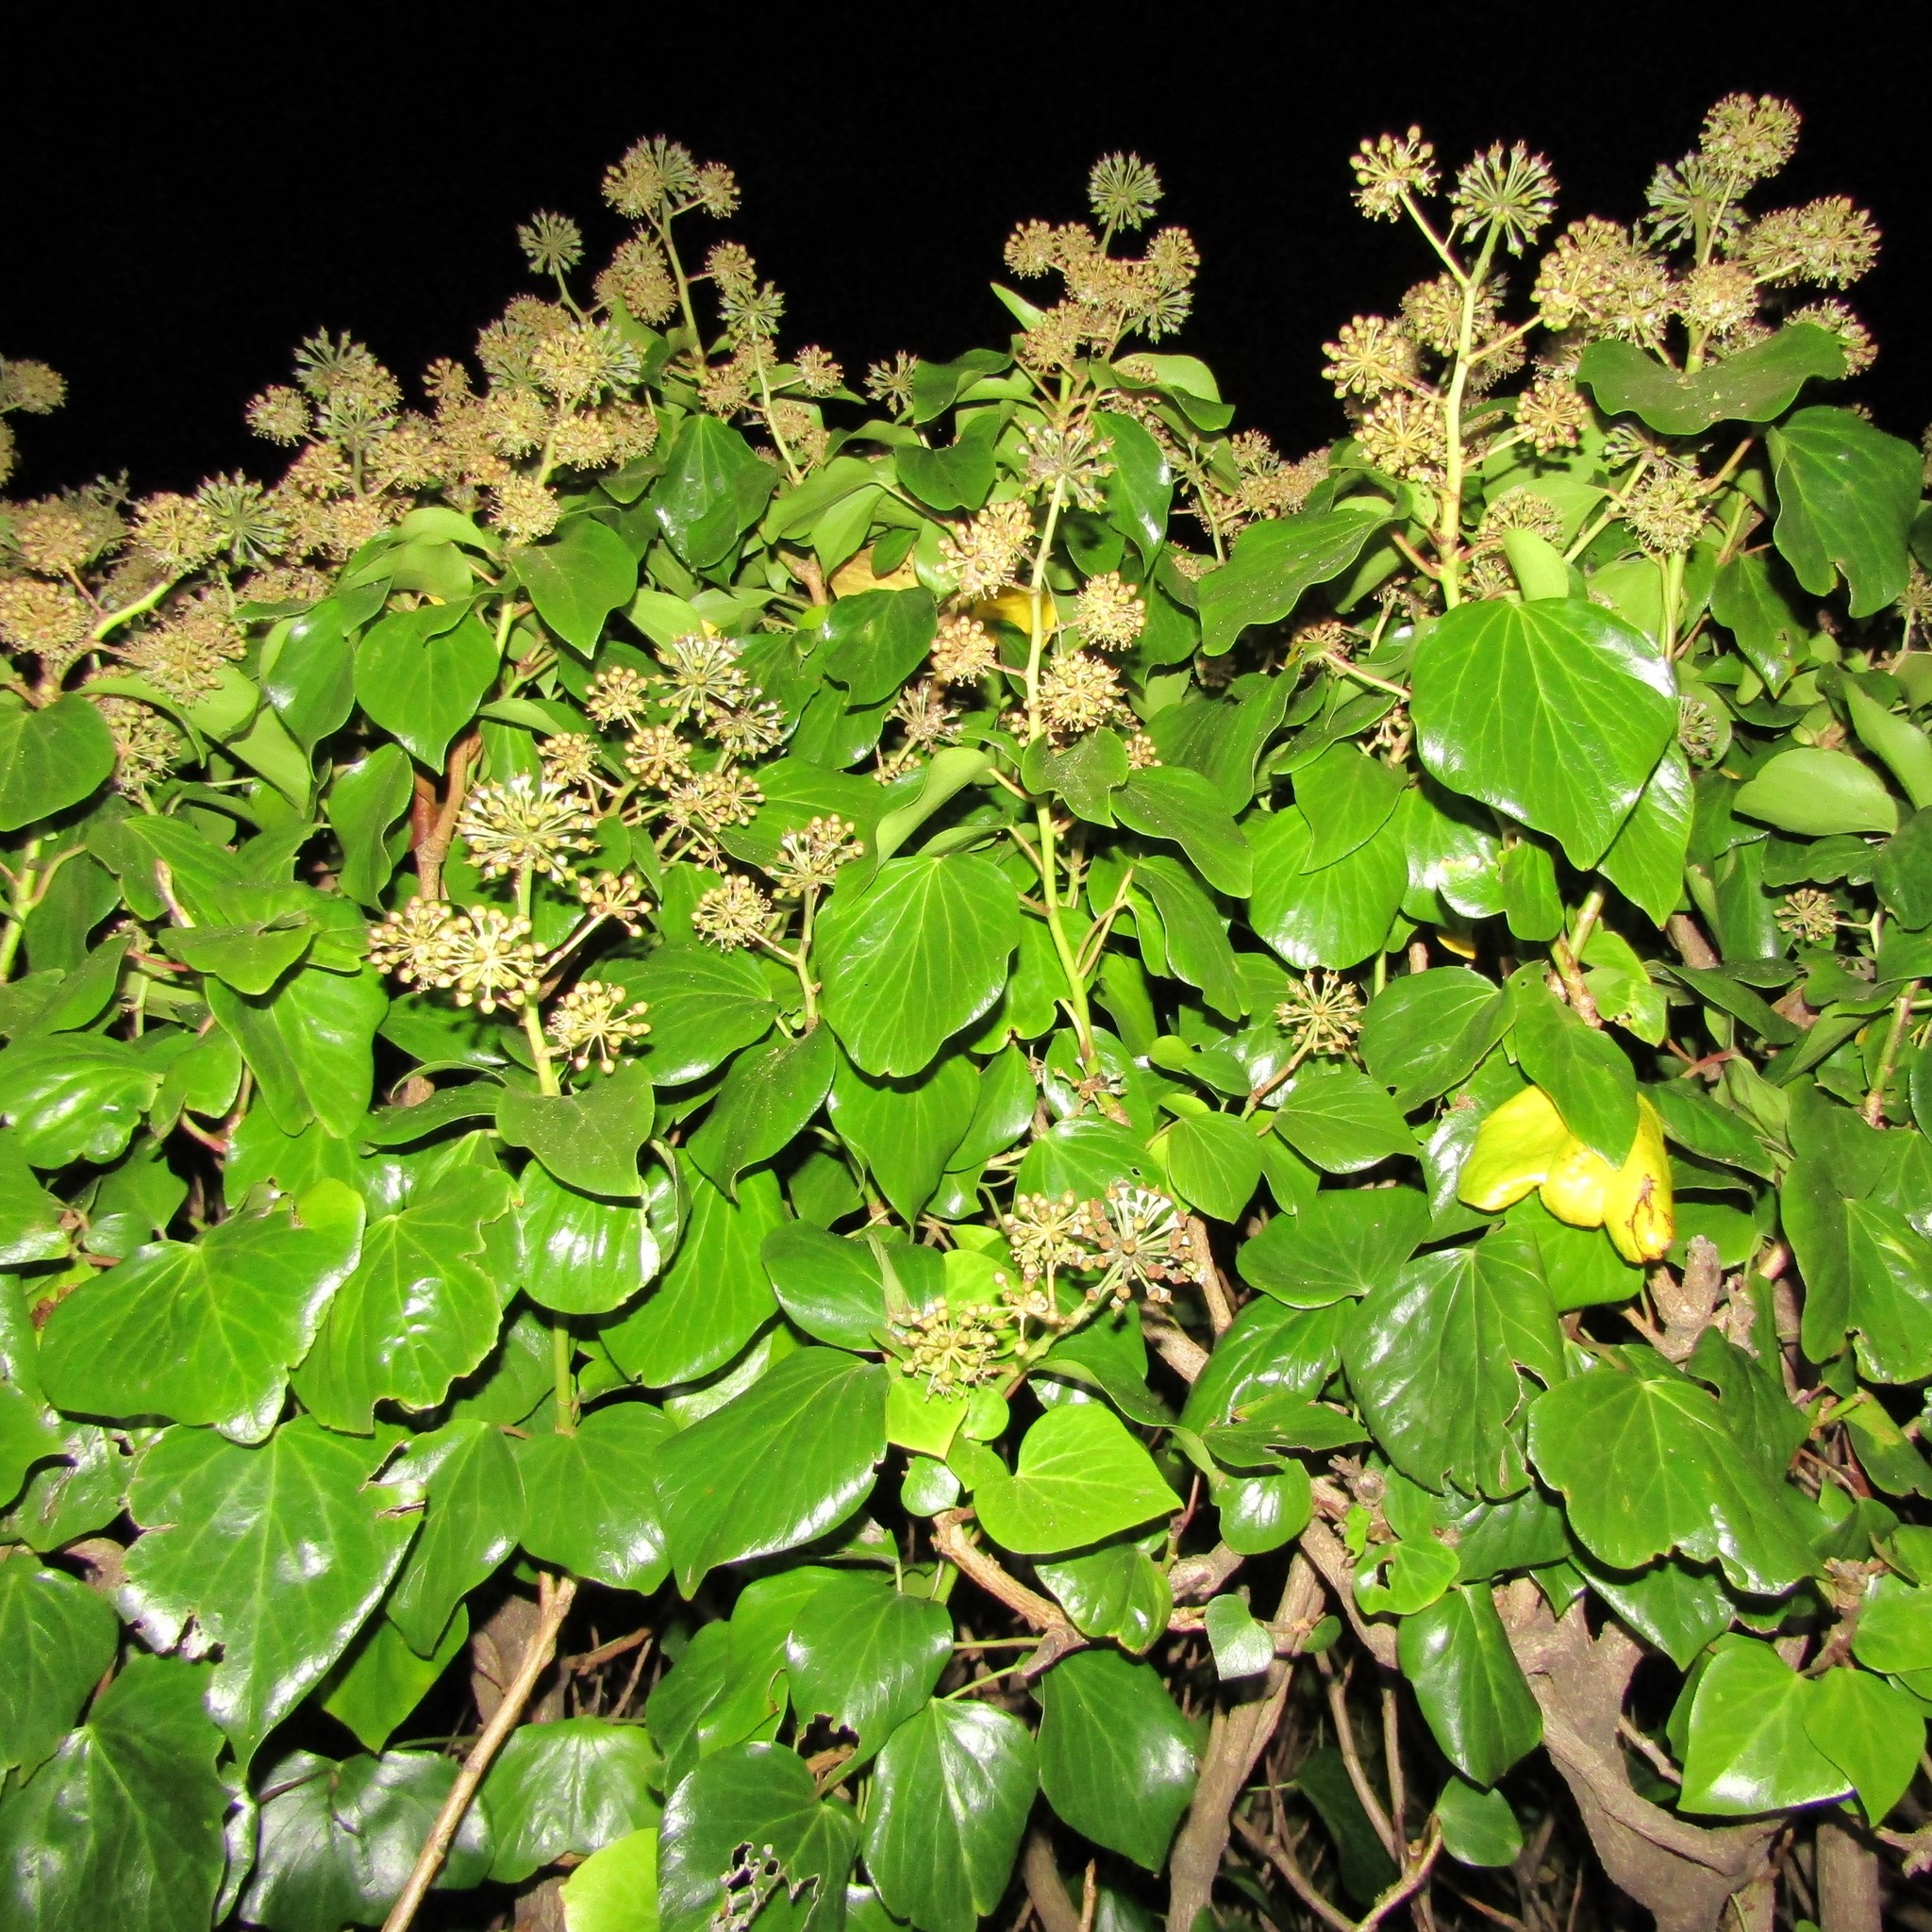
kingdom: Plantae
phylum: Tracheophyta
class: Magnoliopsida
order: Apiales
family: Araliaceae
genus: Hedera
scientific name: Hedera
